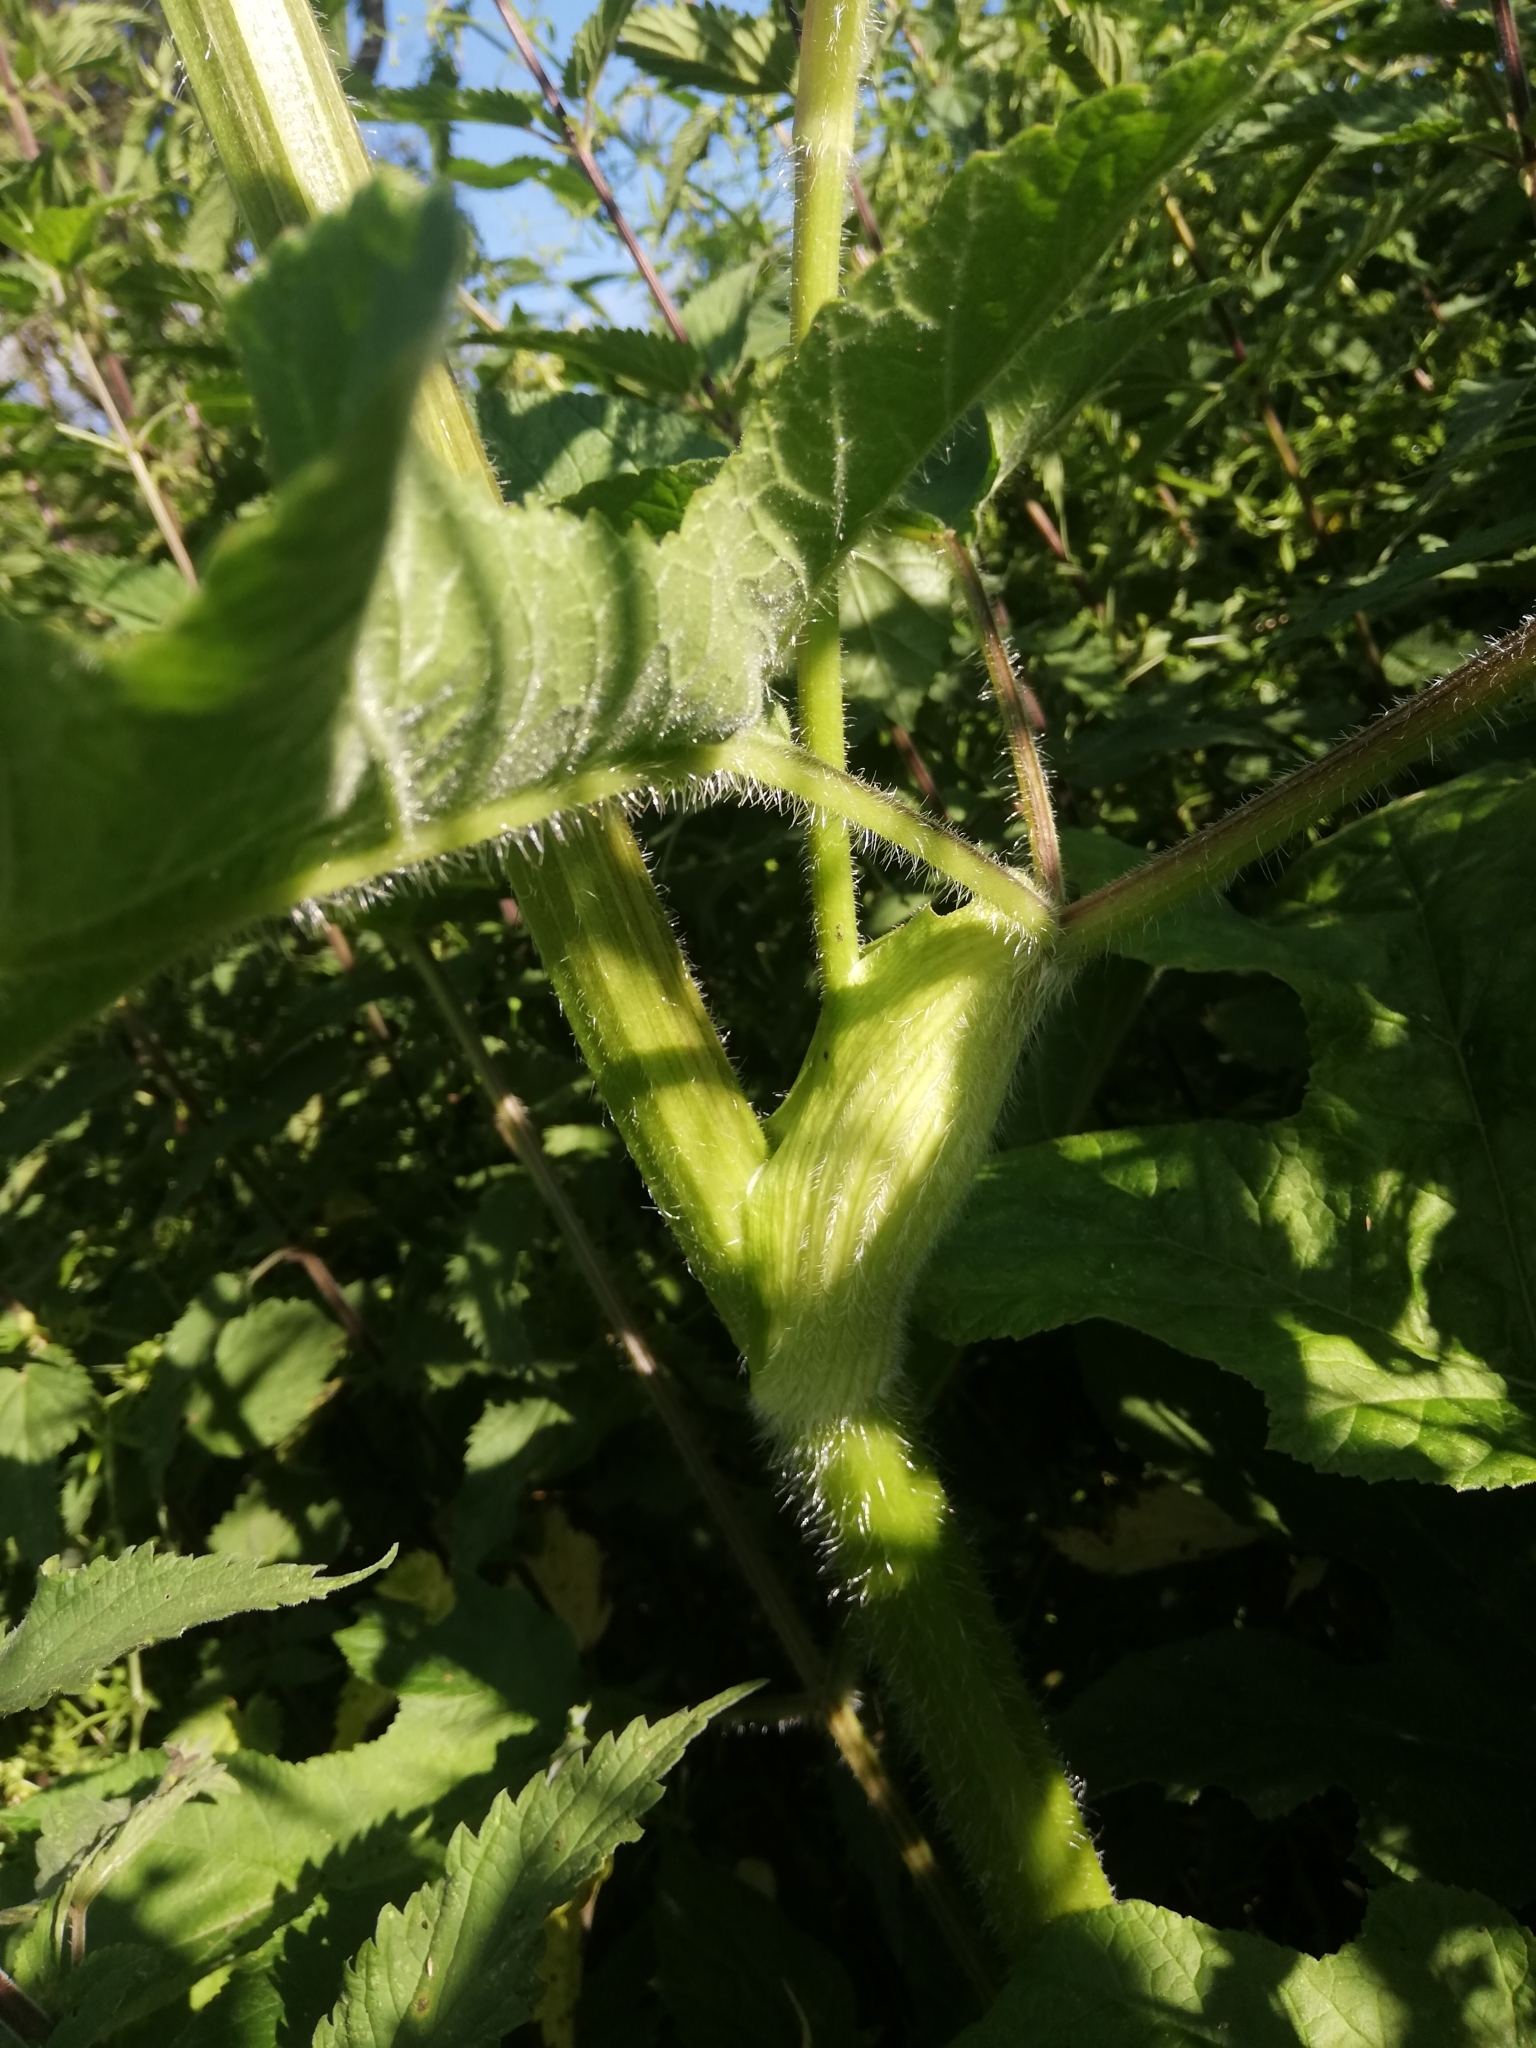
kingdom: Plantae
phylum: Tracheophyta
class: Magnoliopsida
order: Apiales
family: Apiaceae
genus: Heracleum
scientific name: Heracleum sphondylium
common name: Hogweed
